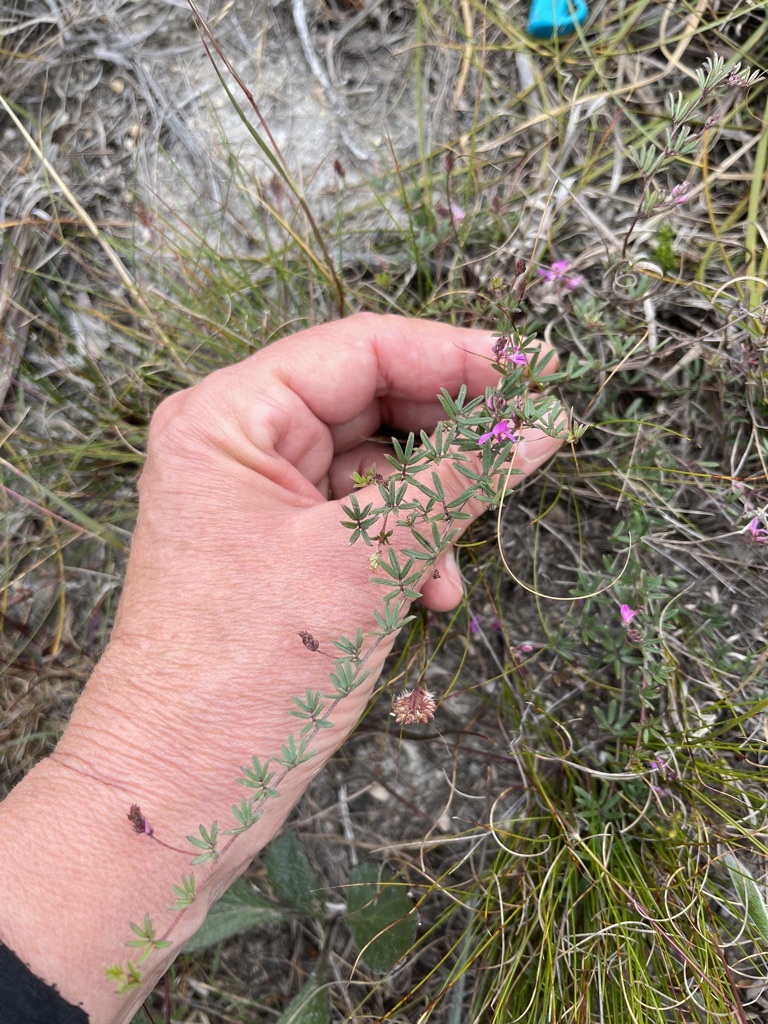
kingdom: Plantae
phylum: Tracheophyta
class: Magnoliopsida
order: Fabales
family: Fabaceae
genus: Indigofera
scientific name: Indigofera angustifolia
